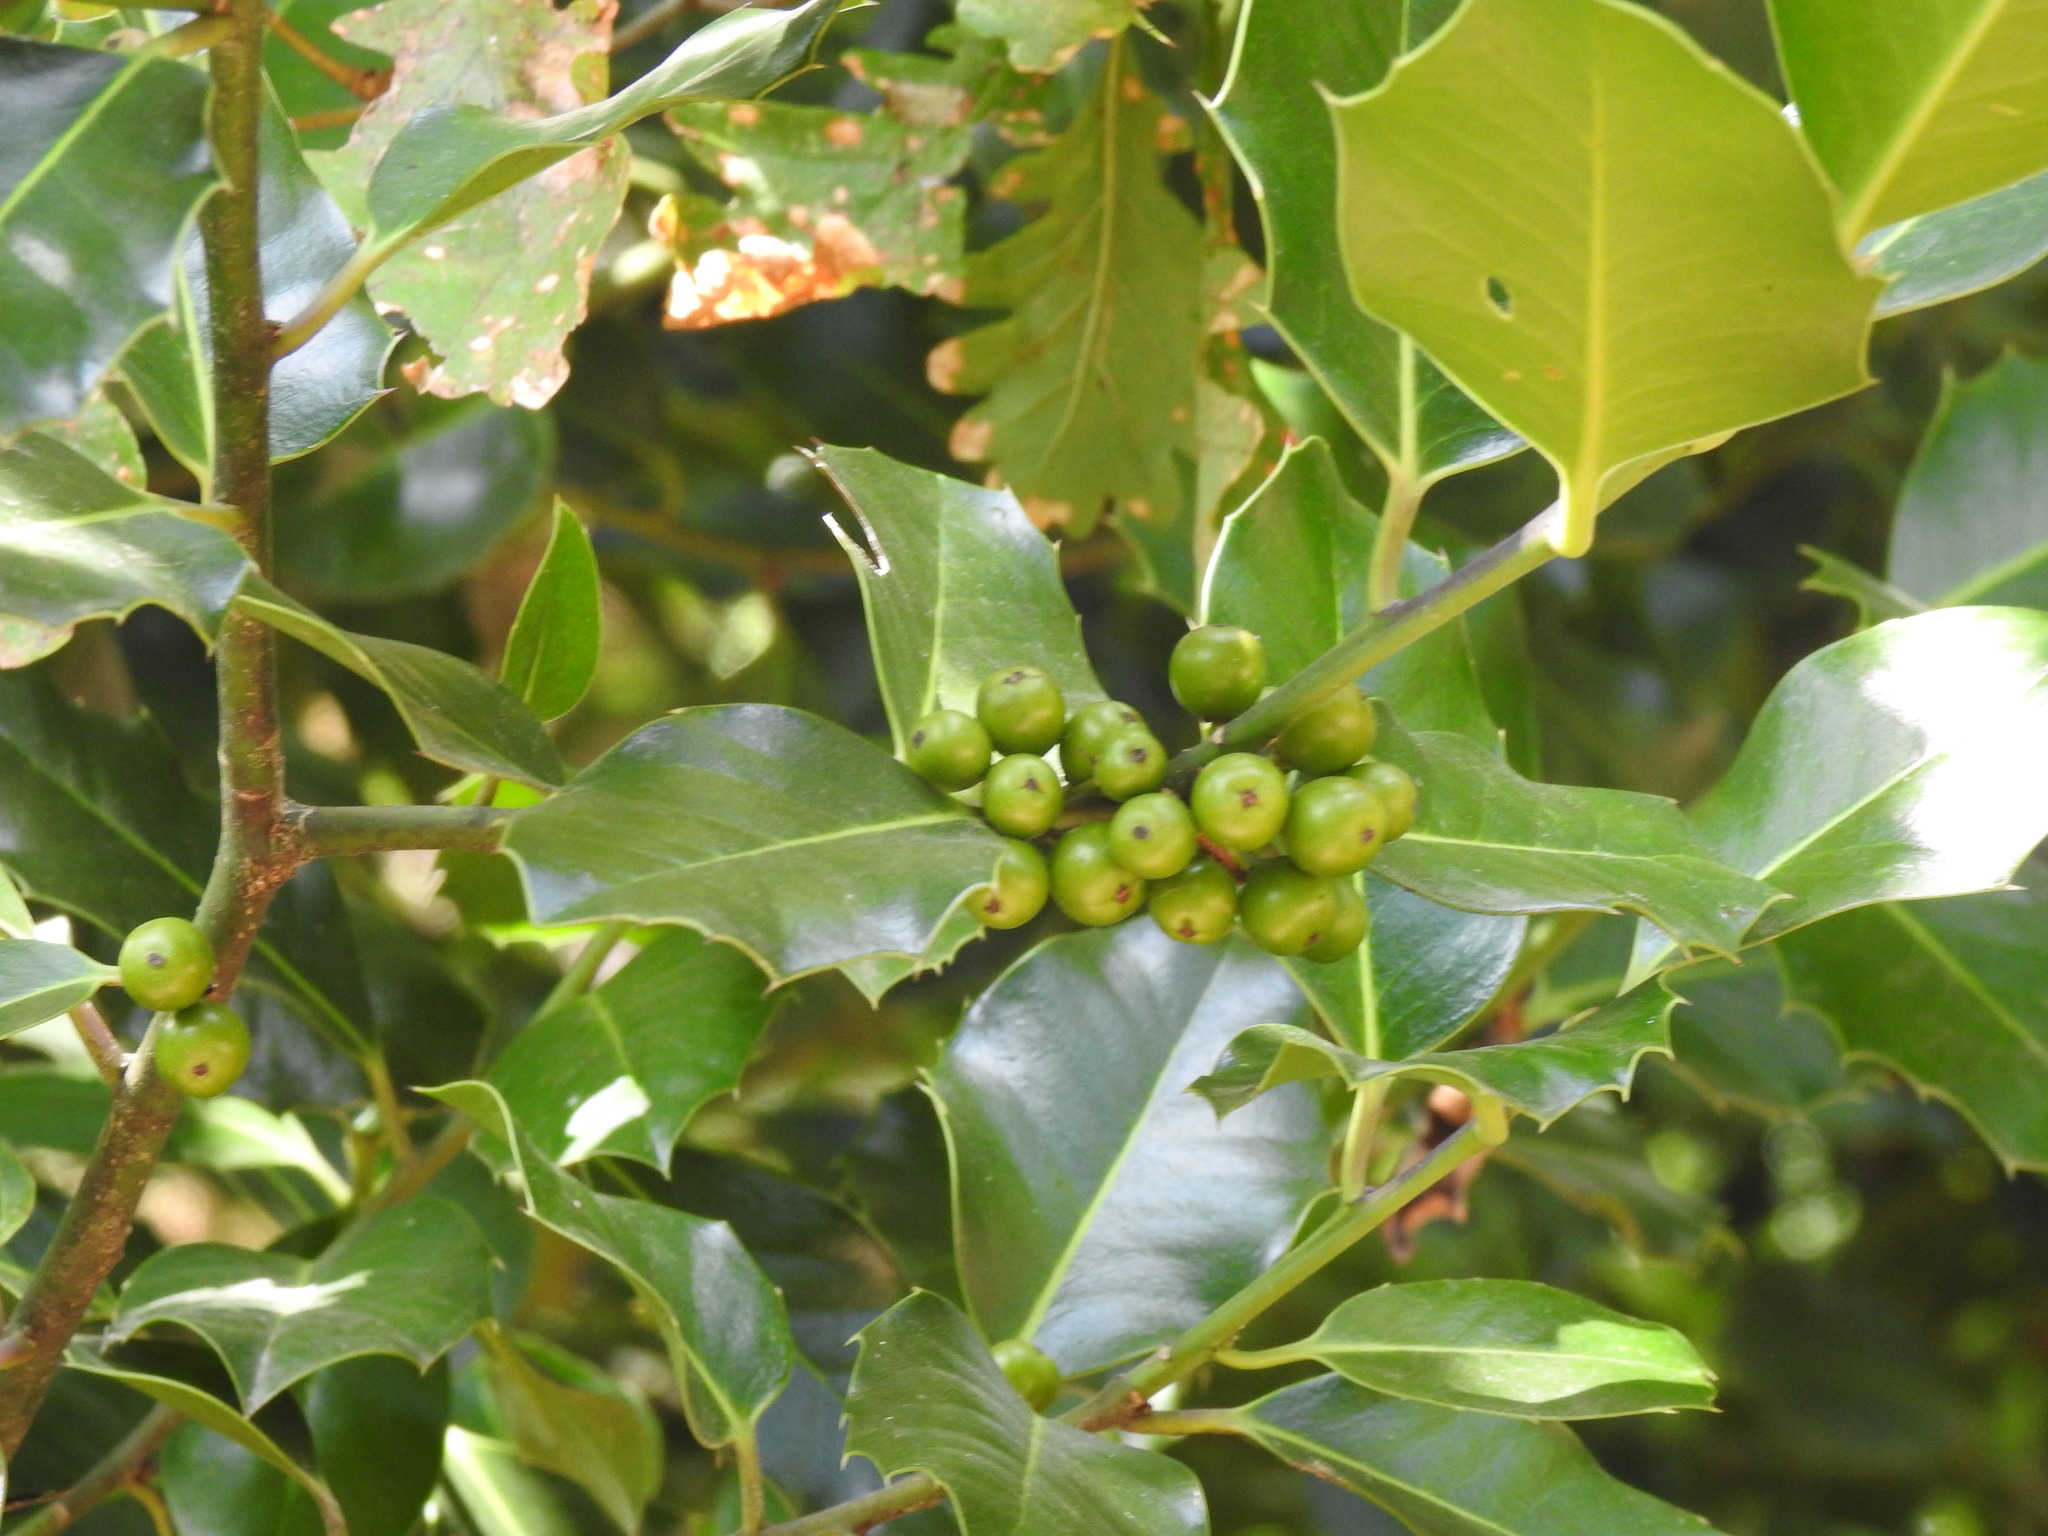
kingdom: Plantae
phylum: Tracheophyta
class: Magnoliopsida
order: Aquifoliales
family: Aquifoliaceae
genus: Ilex
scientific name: Ilex aquifolium
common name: English holly
